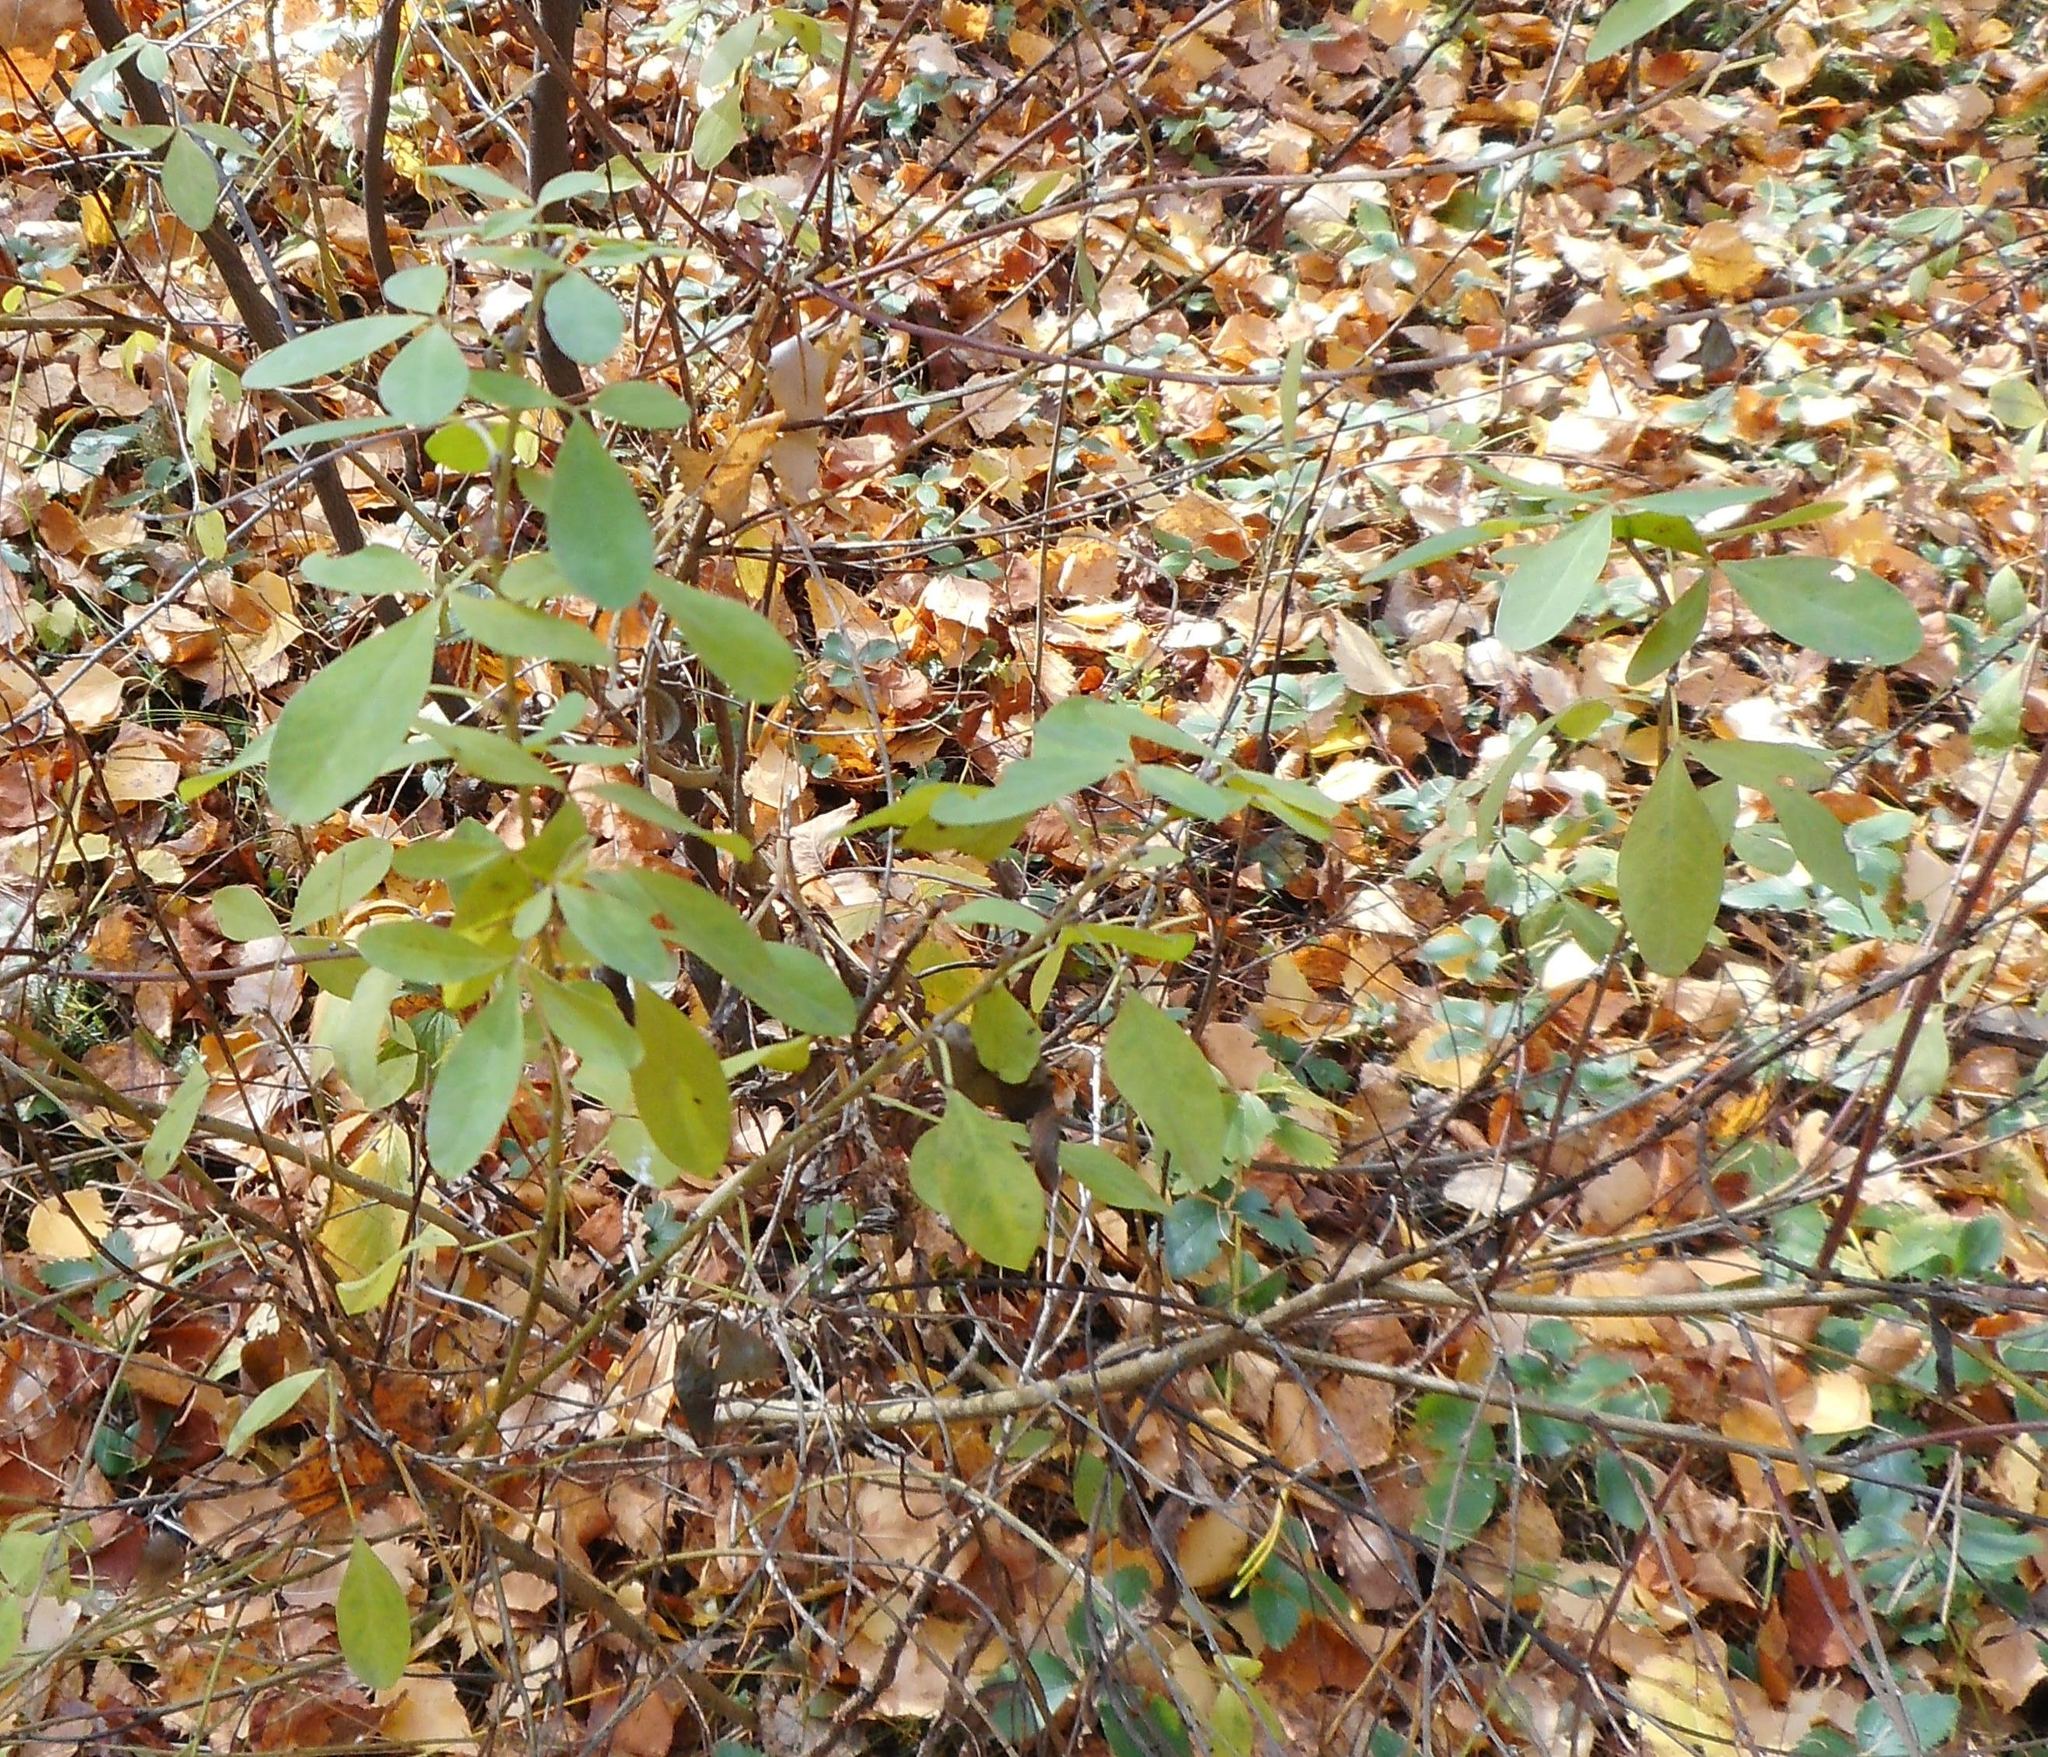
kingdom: Plantae
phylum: Tracheophyta
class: Magnoliopsida
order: Fabales
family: Fabaceae
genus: Chamaecytisus
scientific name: Chamaecytisus ruthenicus
